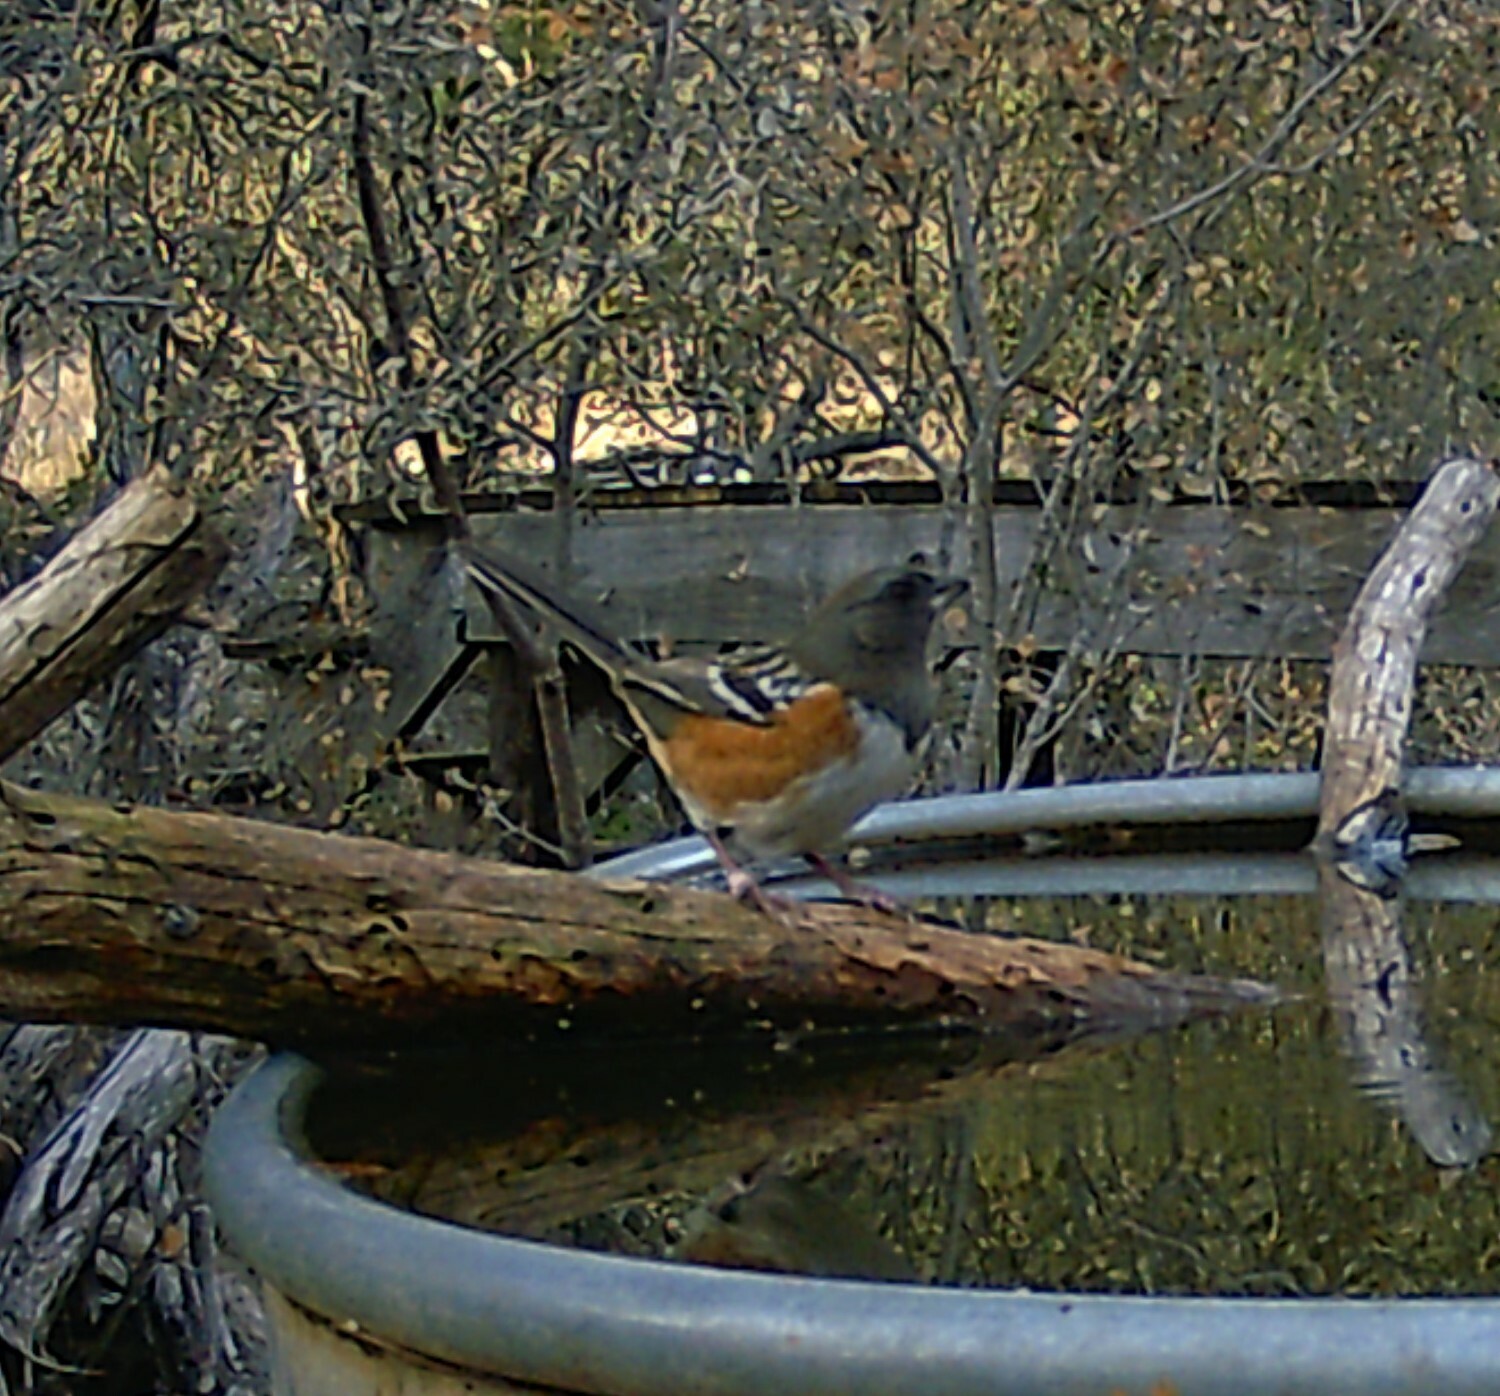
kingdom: Animalia
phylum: Chordata
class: Aves
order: Passeriformes
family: Passerellidae
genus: Pipilo
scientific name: Pipilo maculatus
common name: Spotted towhee
